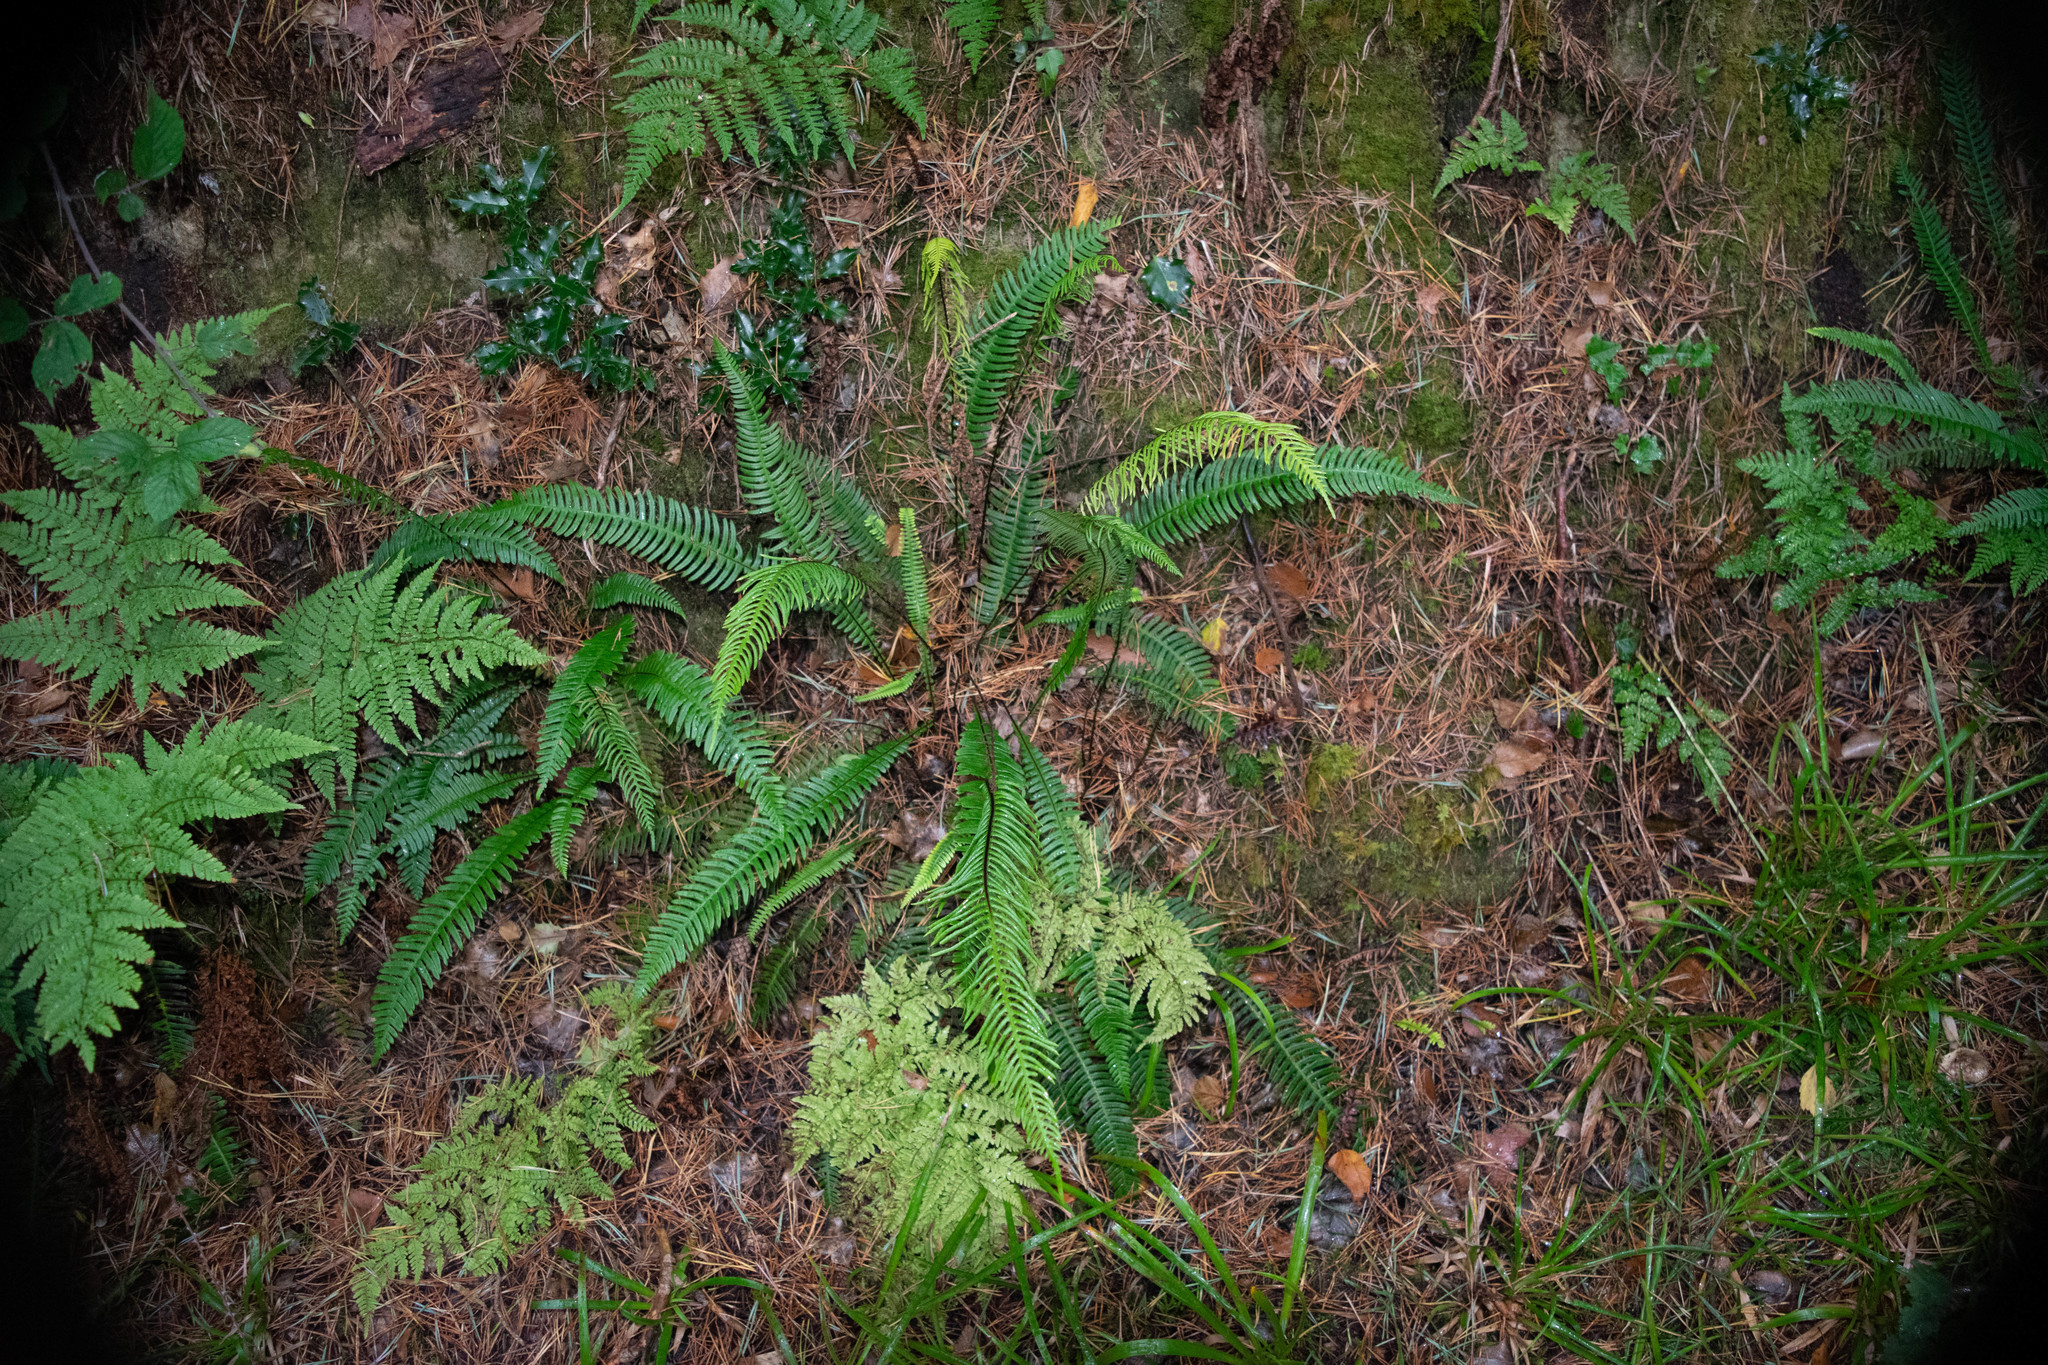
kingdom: Plantae
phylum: Tracheophyta
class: Polypodiopsida
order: Polypodiales
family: Blechnaceae
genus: Struthiopteris
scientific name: Struthiopteris spicant
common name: Deer fern
